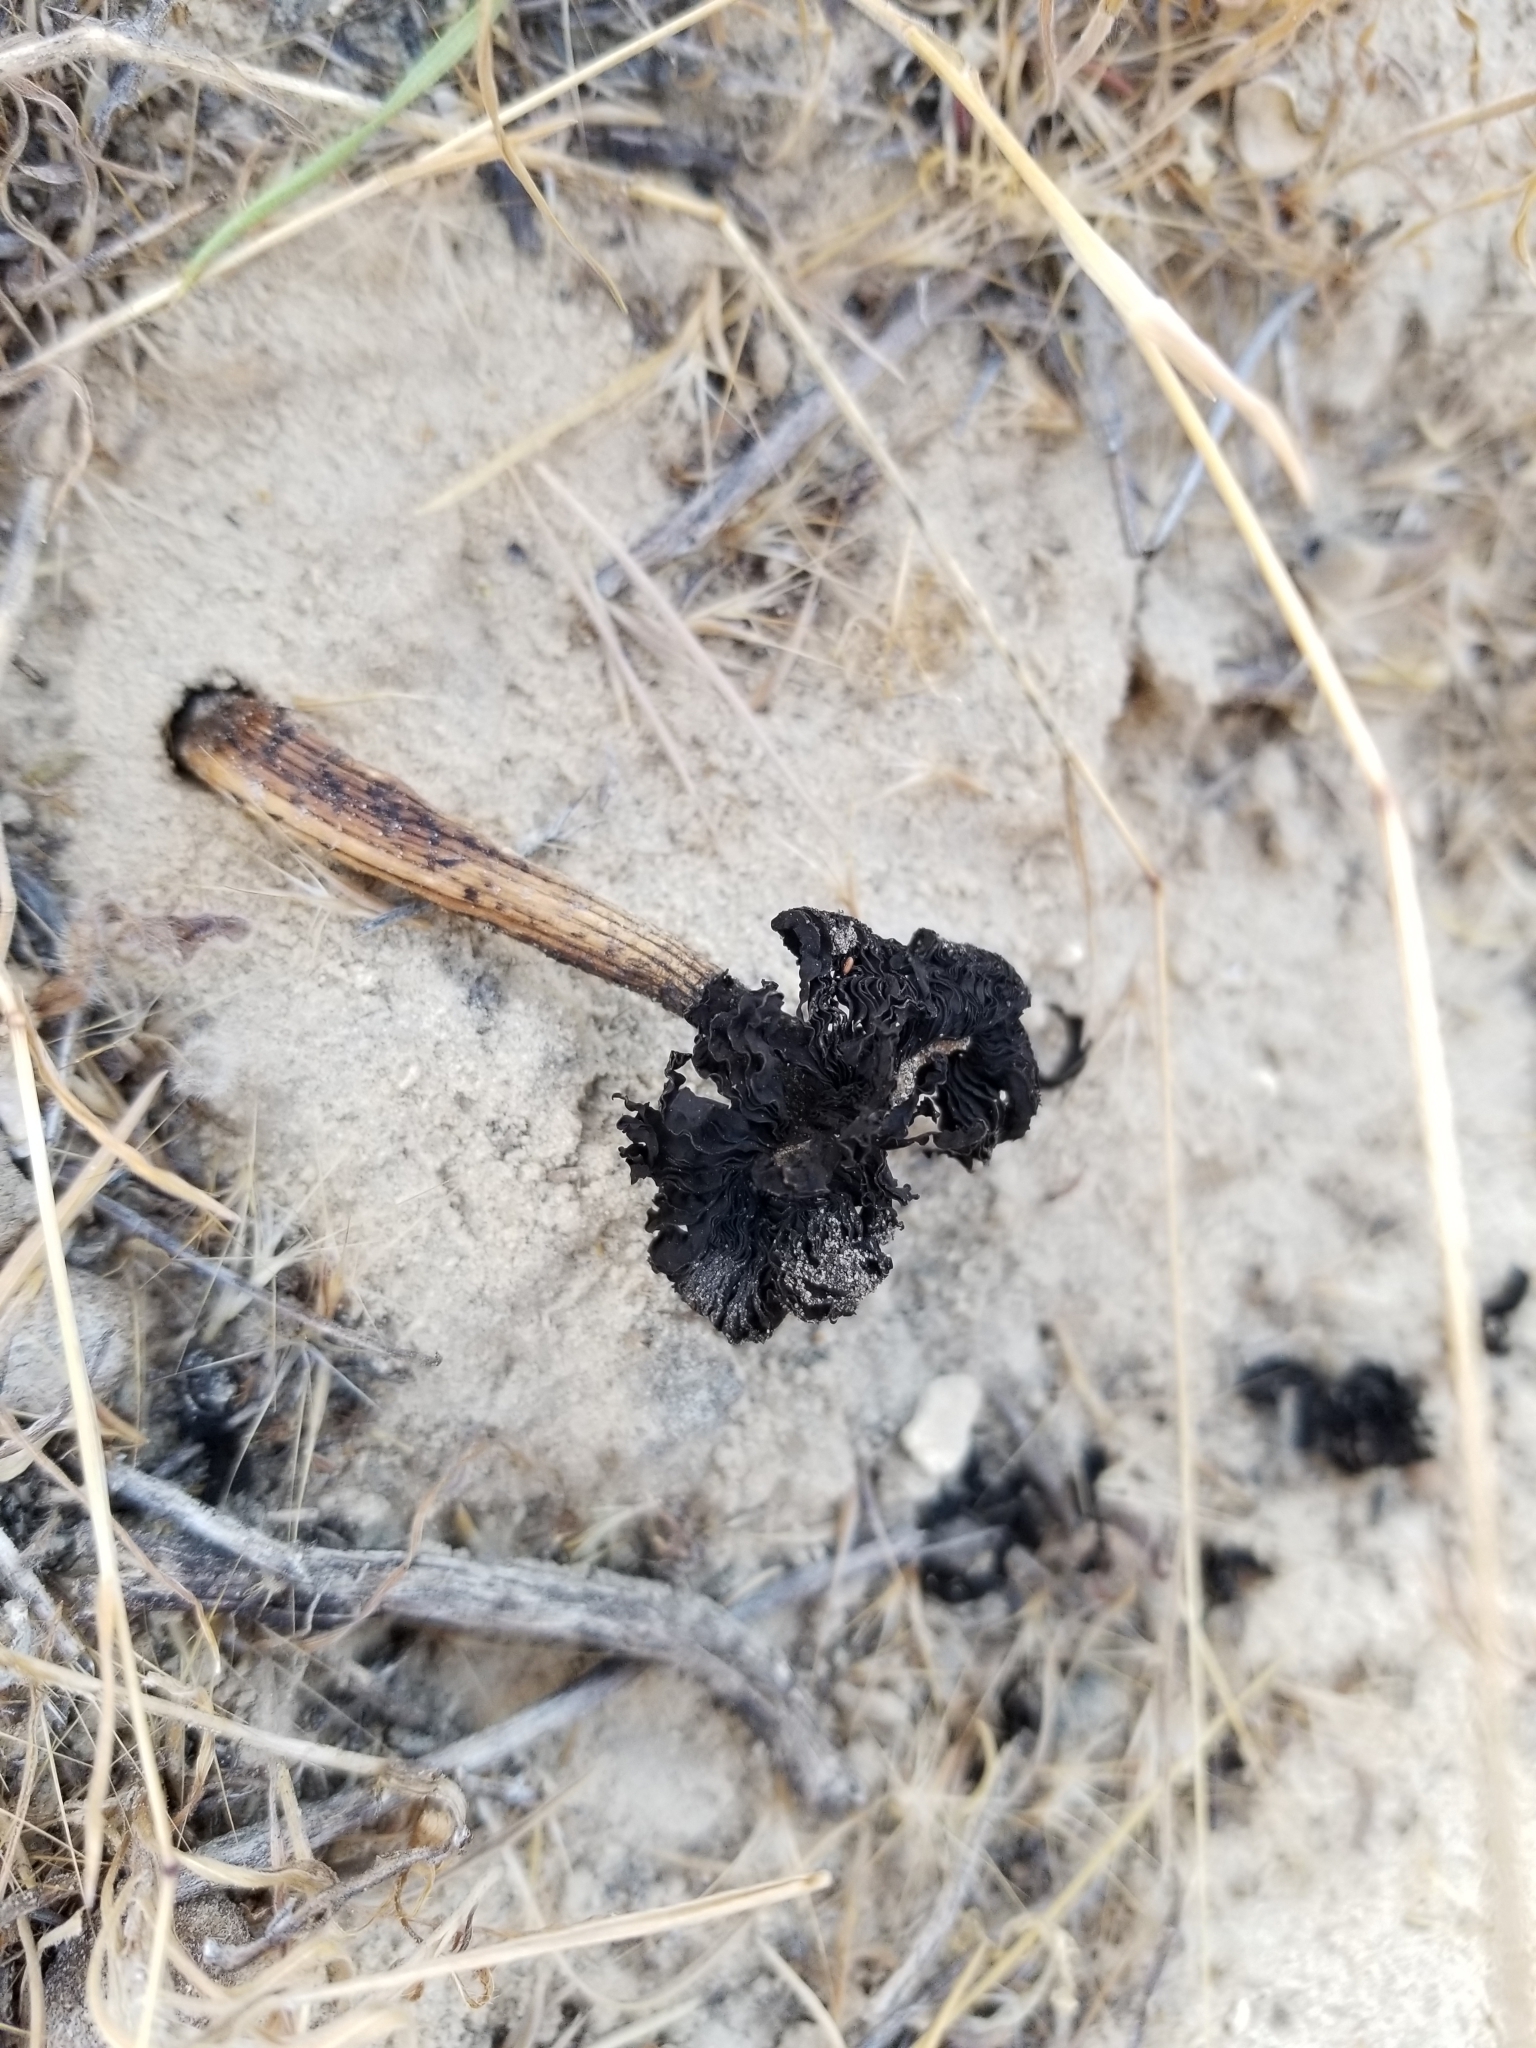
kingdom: Fungi
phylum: Basidiomycota
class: Agaricomycetes
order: Agaricales
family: Agaricaceae
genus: Montagnea
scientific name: Montagnea arenaria
